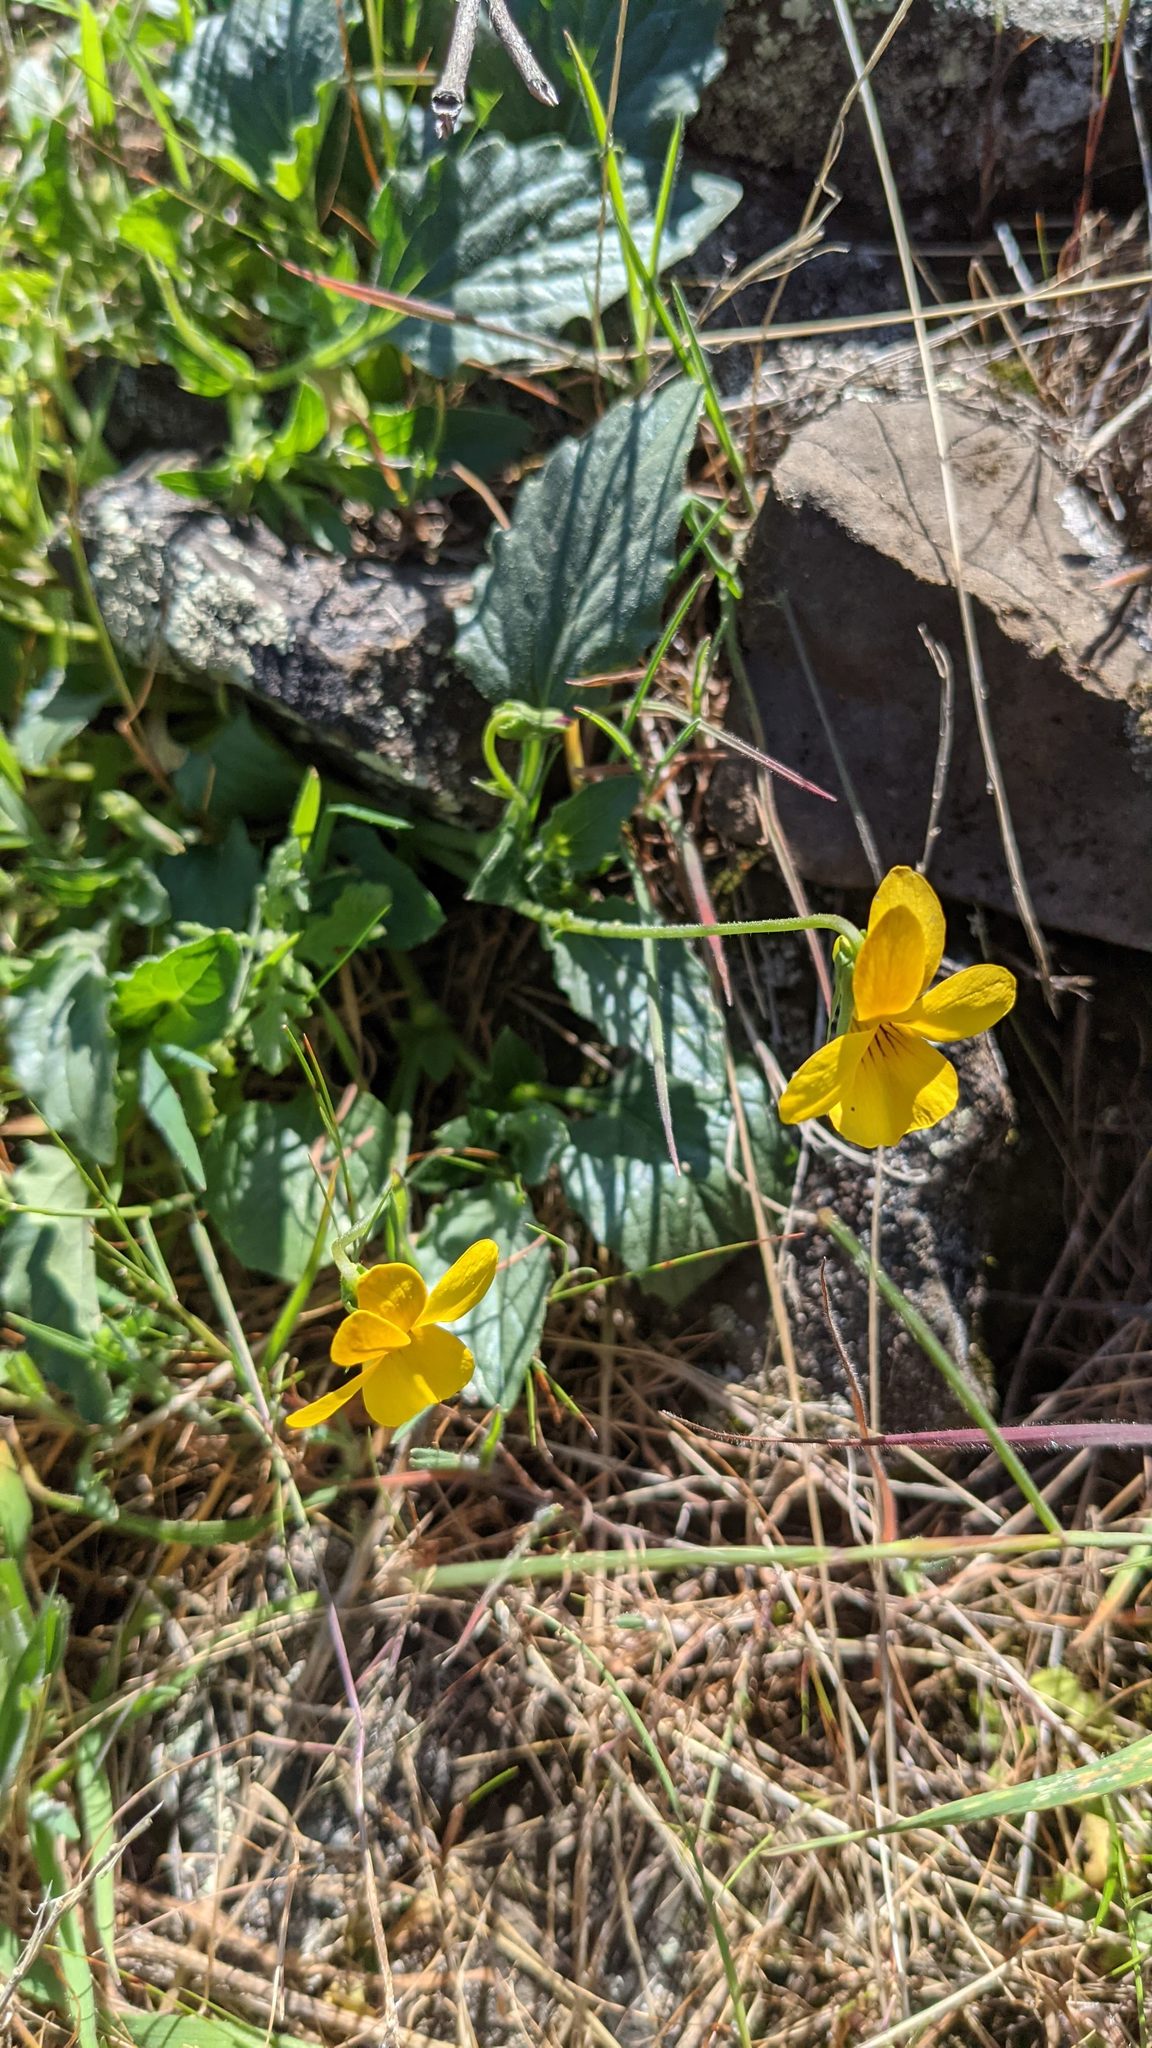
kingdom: Plantae
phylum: Tracheophyta
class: Magnoliopsida
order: Malpighiales
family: Violaceae
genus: Viola
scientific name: Viola quercetorum
